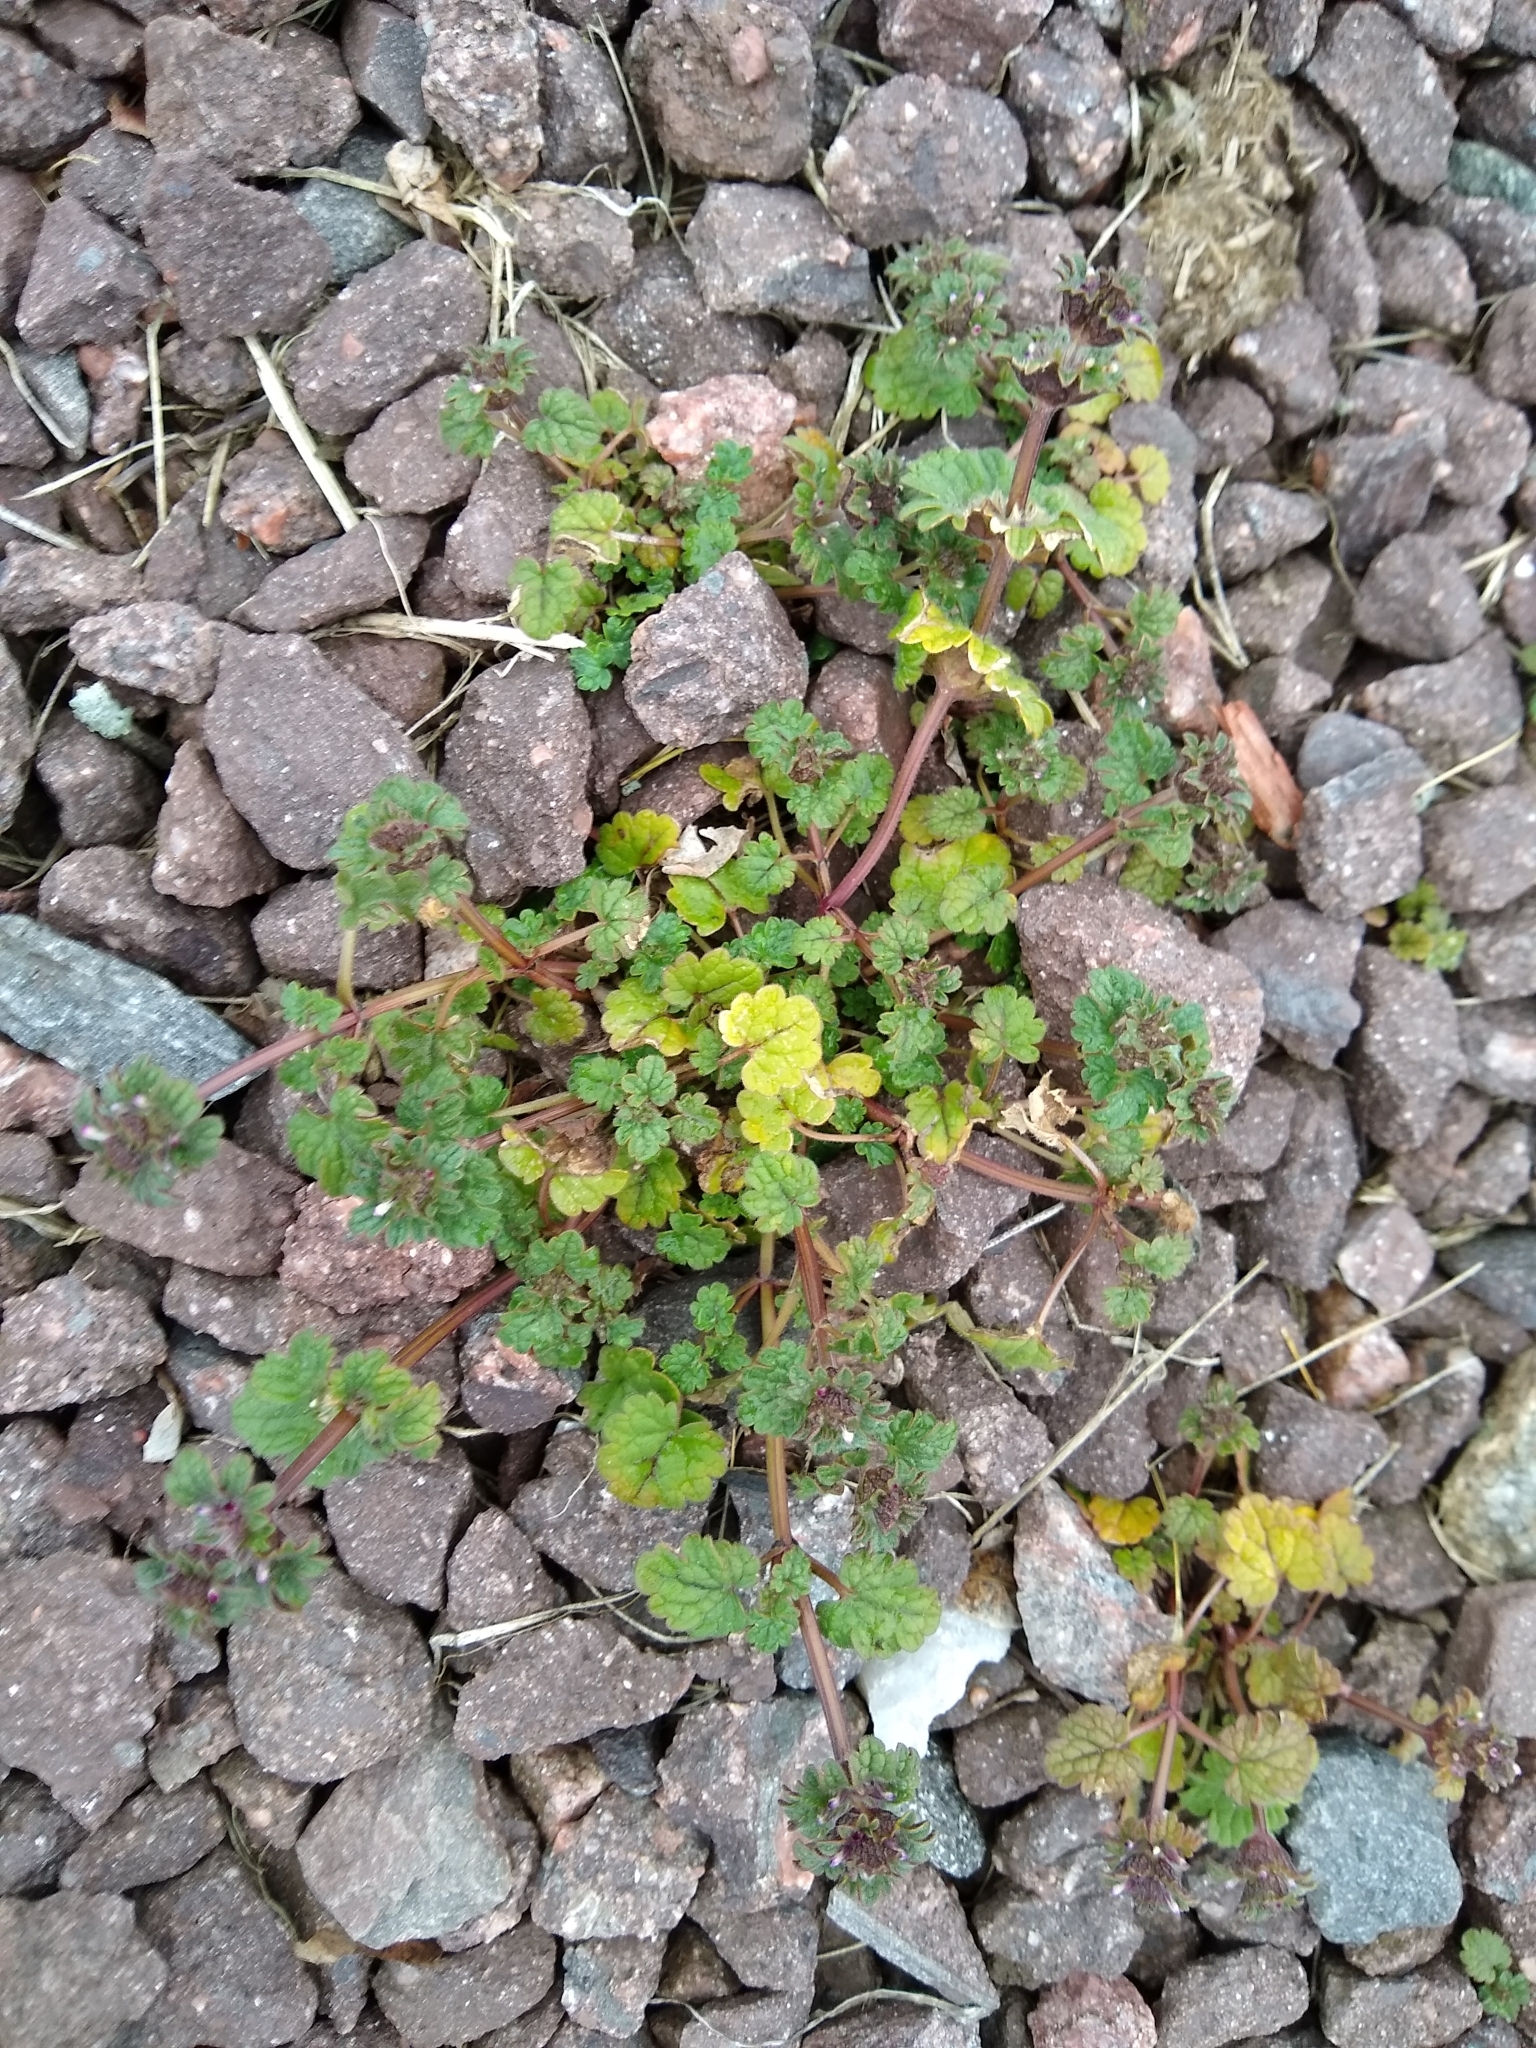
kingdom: Plantae
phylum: Tracheophyta
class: Magnoliopsida
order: Lamiales
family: Lamiaceae
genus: Lamium
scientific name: Lamium amplexicaule
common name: Henbit dead-nettle
